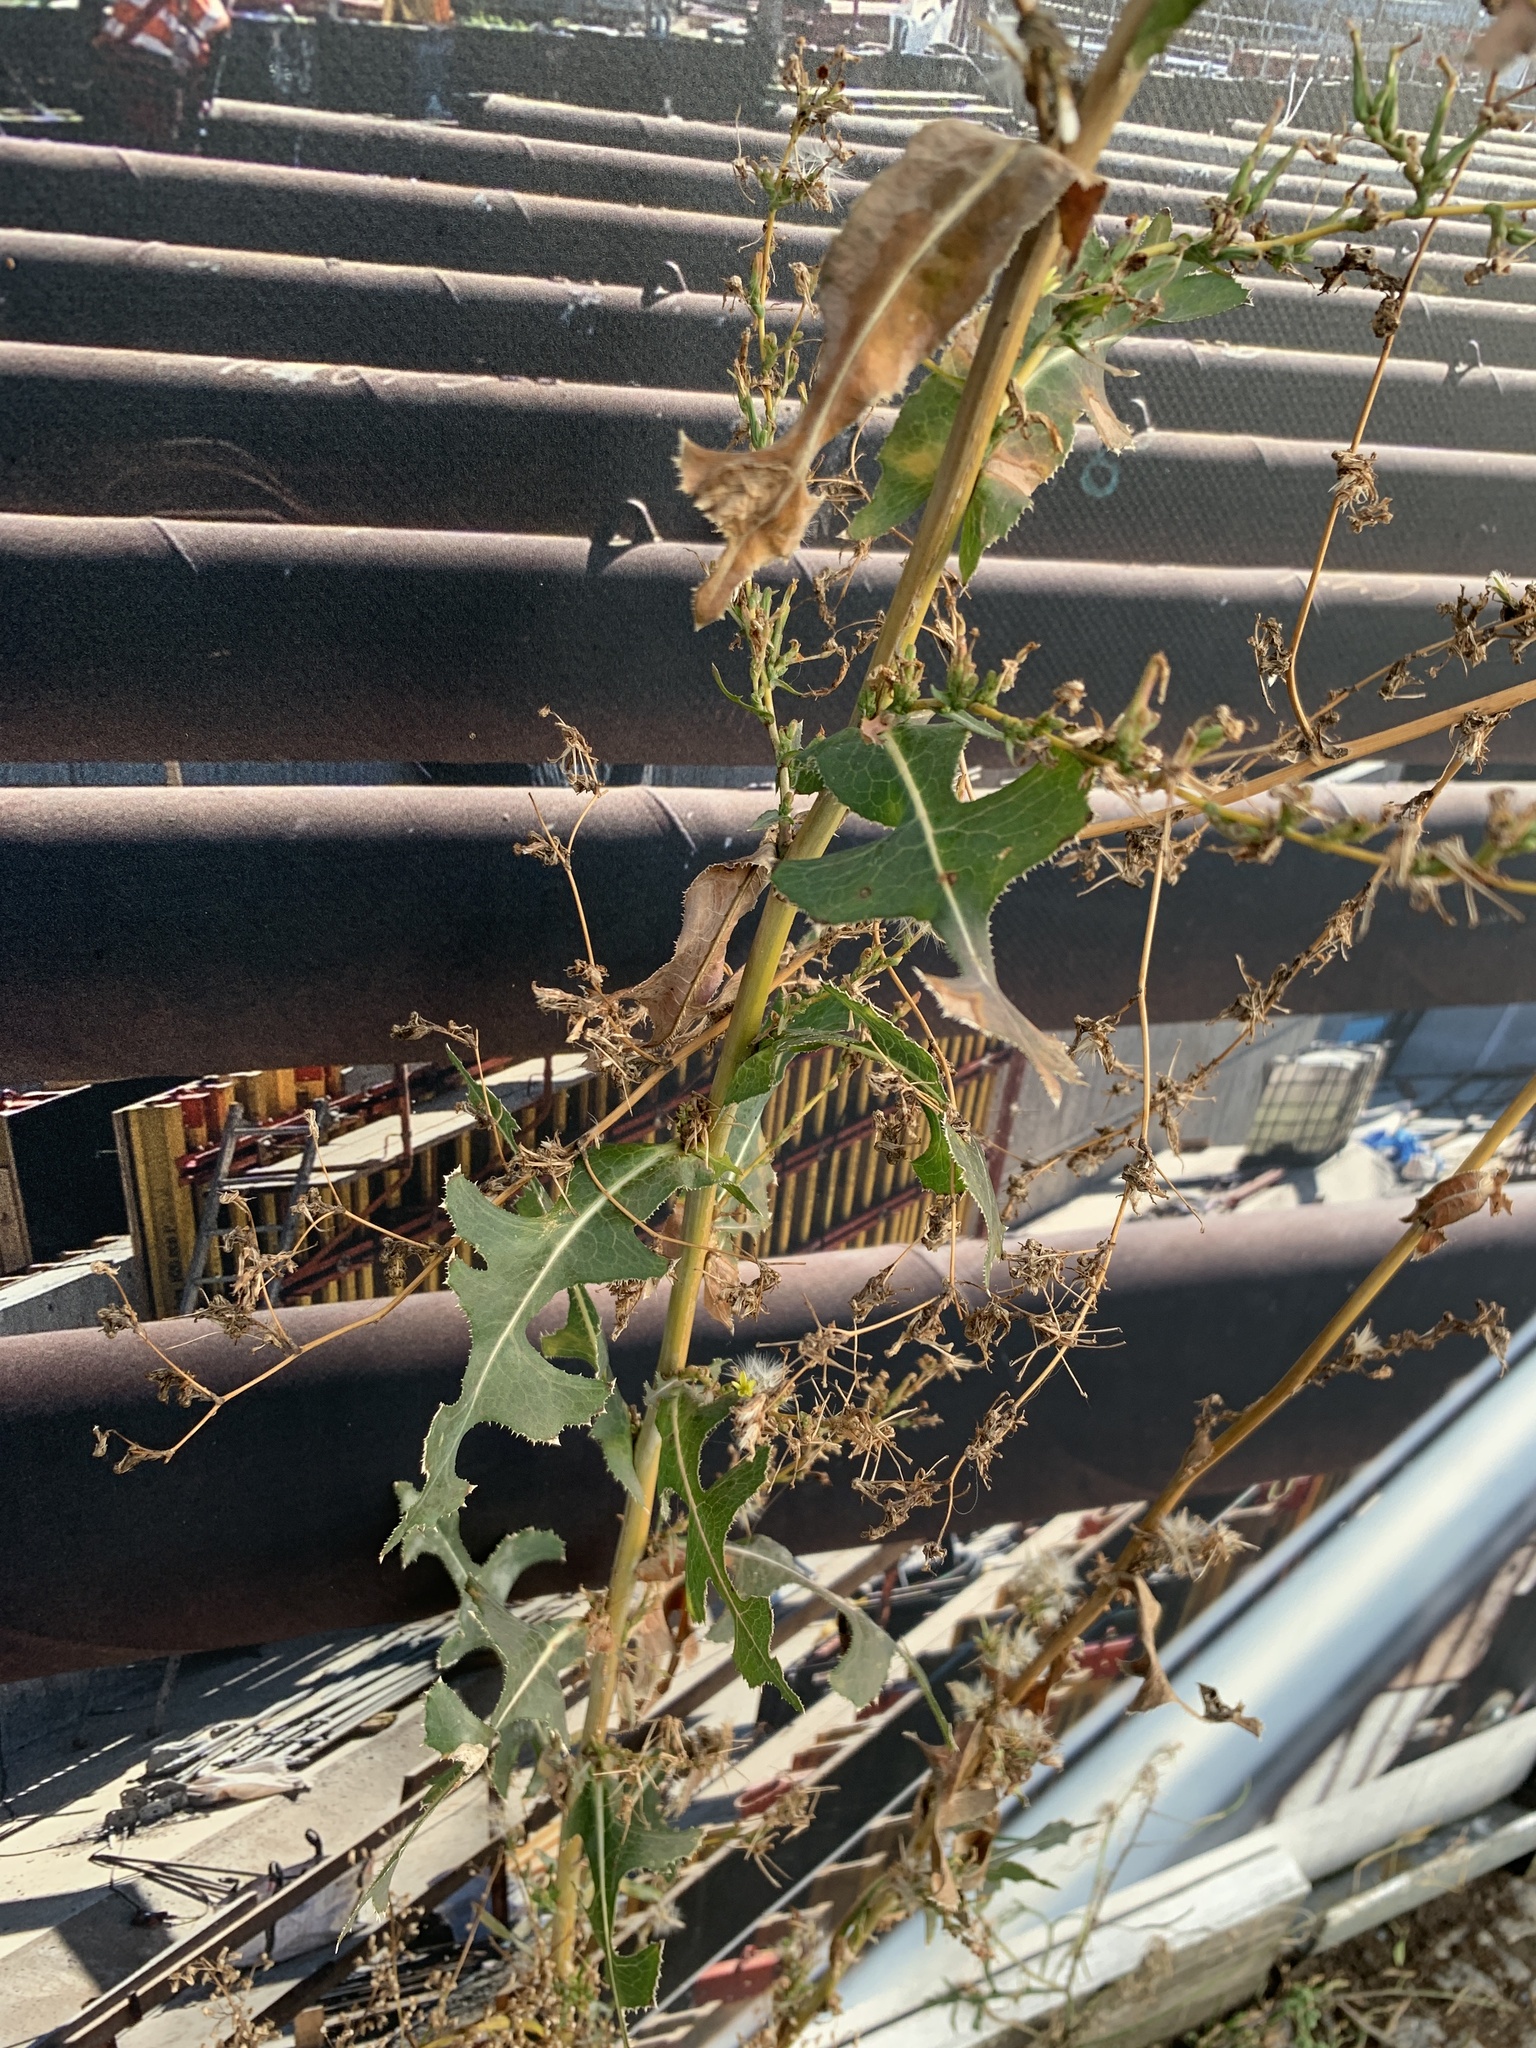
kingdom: Plantae
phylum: Tracheophyta
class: Magnoliopsida
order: Asterales
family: Asteraceae
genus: Lactuca
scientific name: Lactuca serriola
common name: Prickly lettuce
